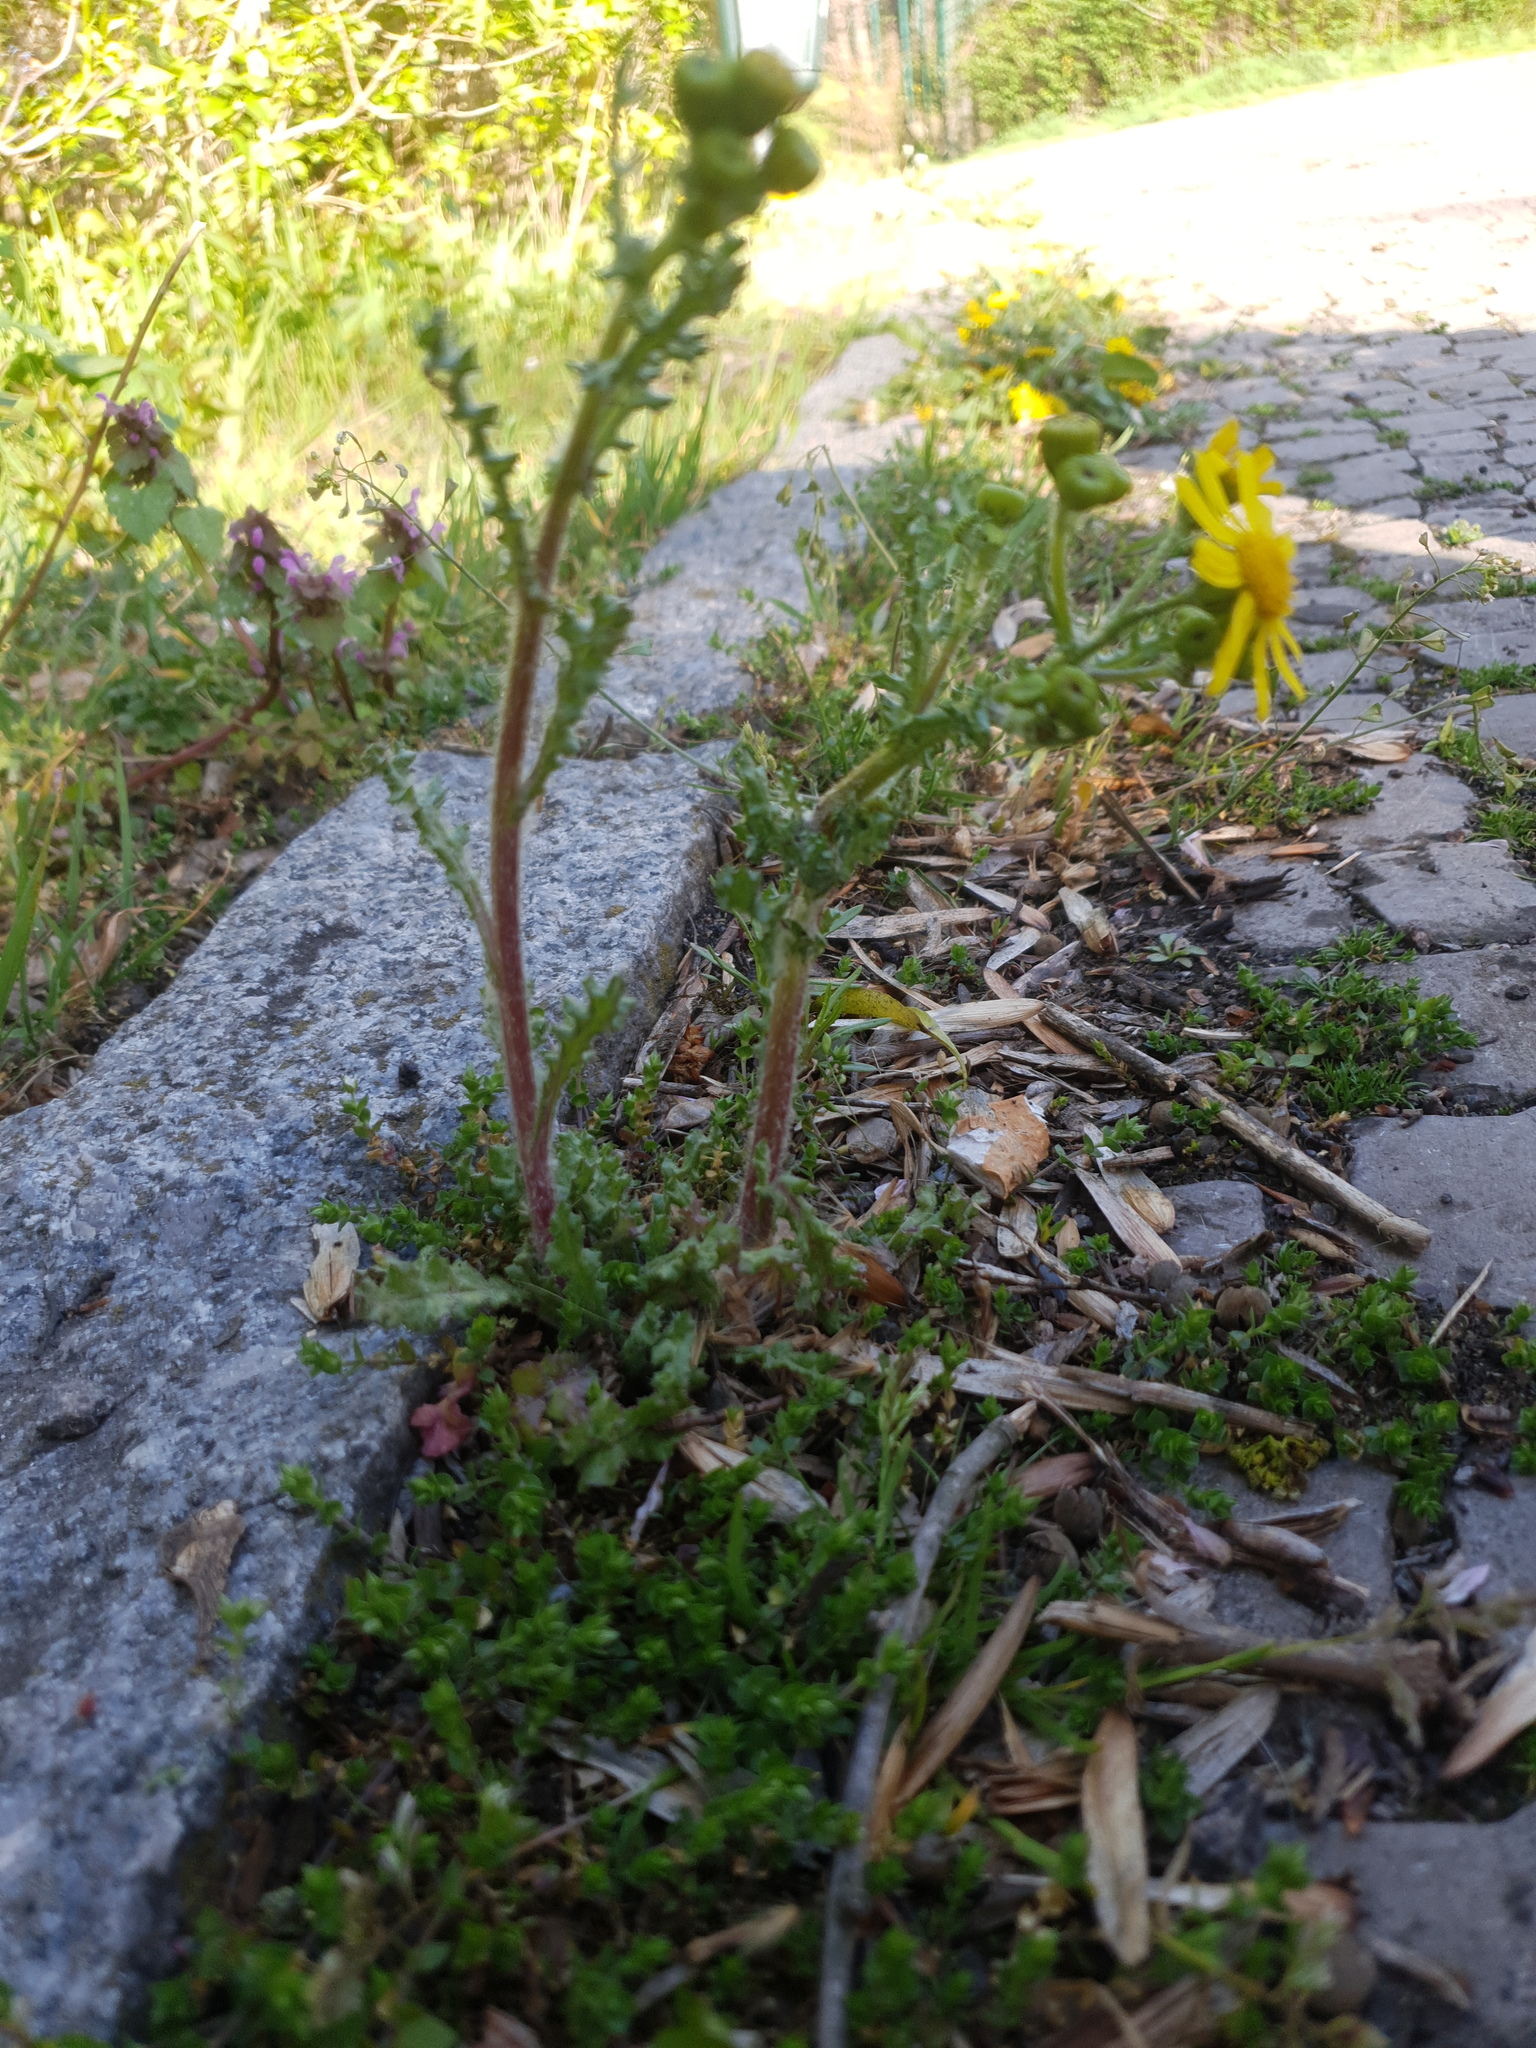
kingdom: Plantae
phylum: Tracheophyta
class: Magnoliopsida
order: Asterales
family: Asteraceae
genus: Senecio
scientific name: Senecio vernalis
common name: Eastern groundsel
